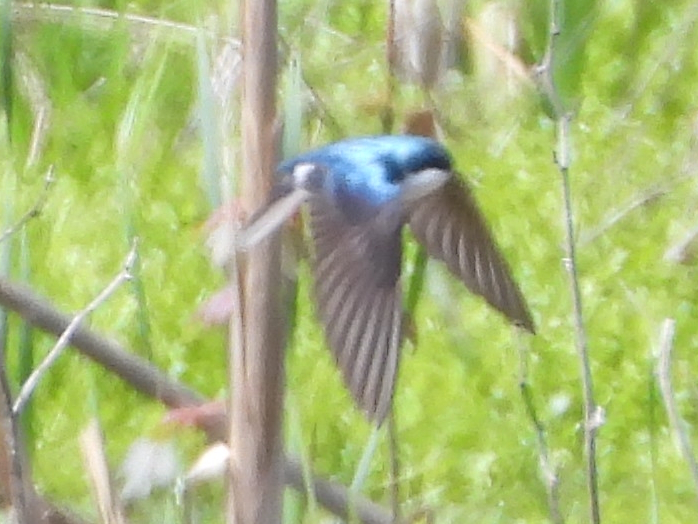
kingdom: Animalia
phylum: Chordata
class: Aves
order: Passeriformes
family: Hirundinidae
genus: Tachycineta
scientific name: Tachycineta bicolor
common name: Tree swallow
